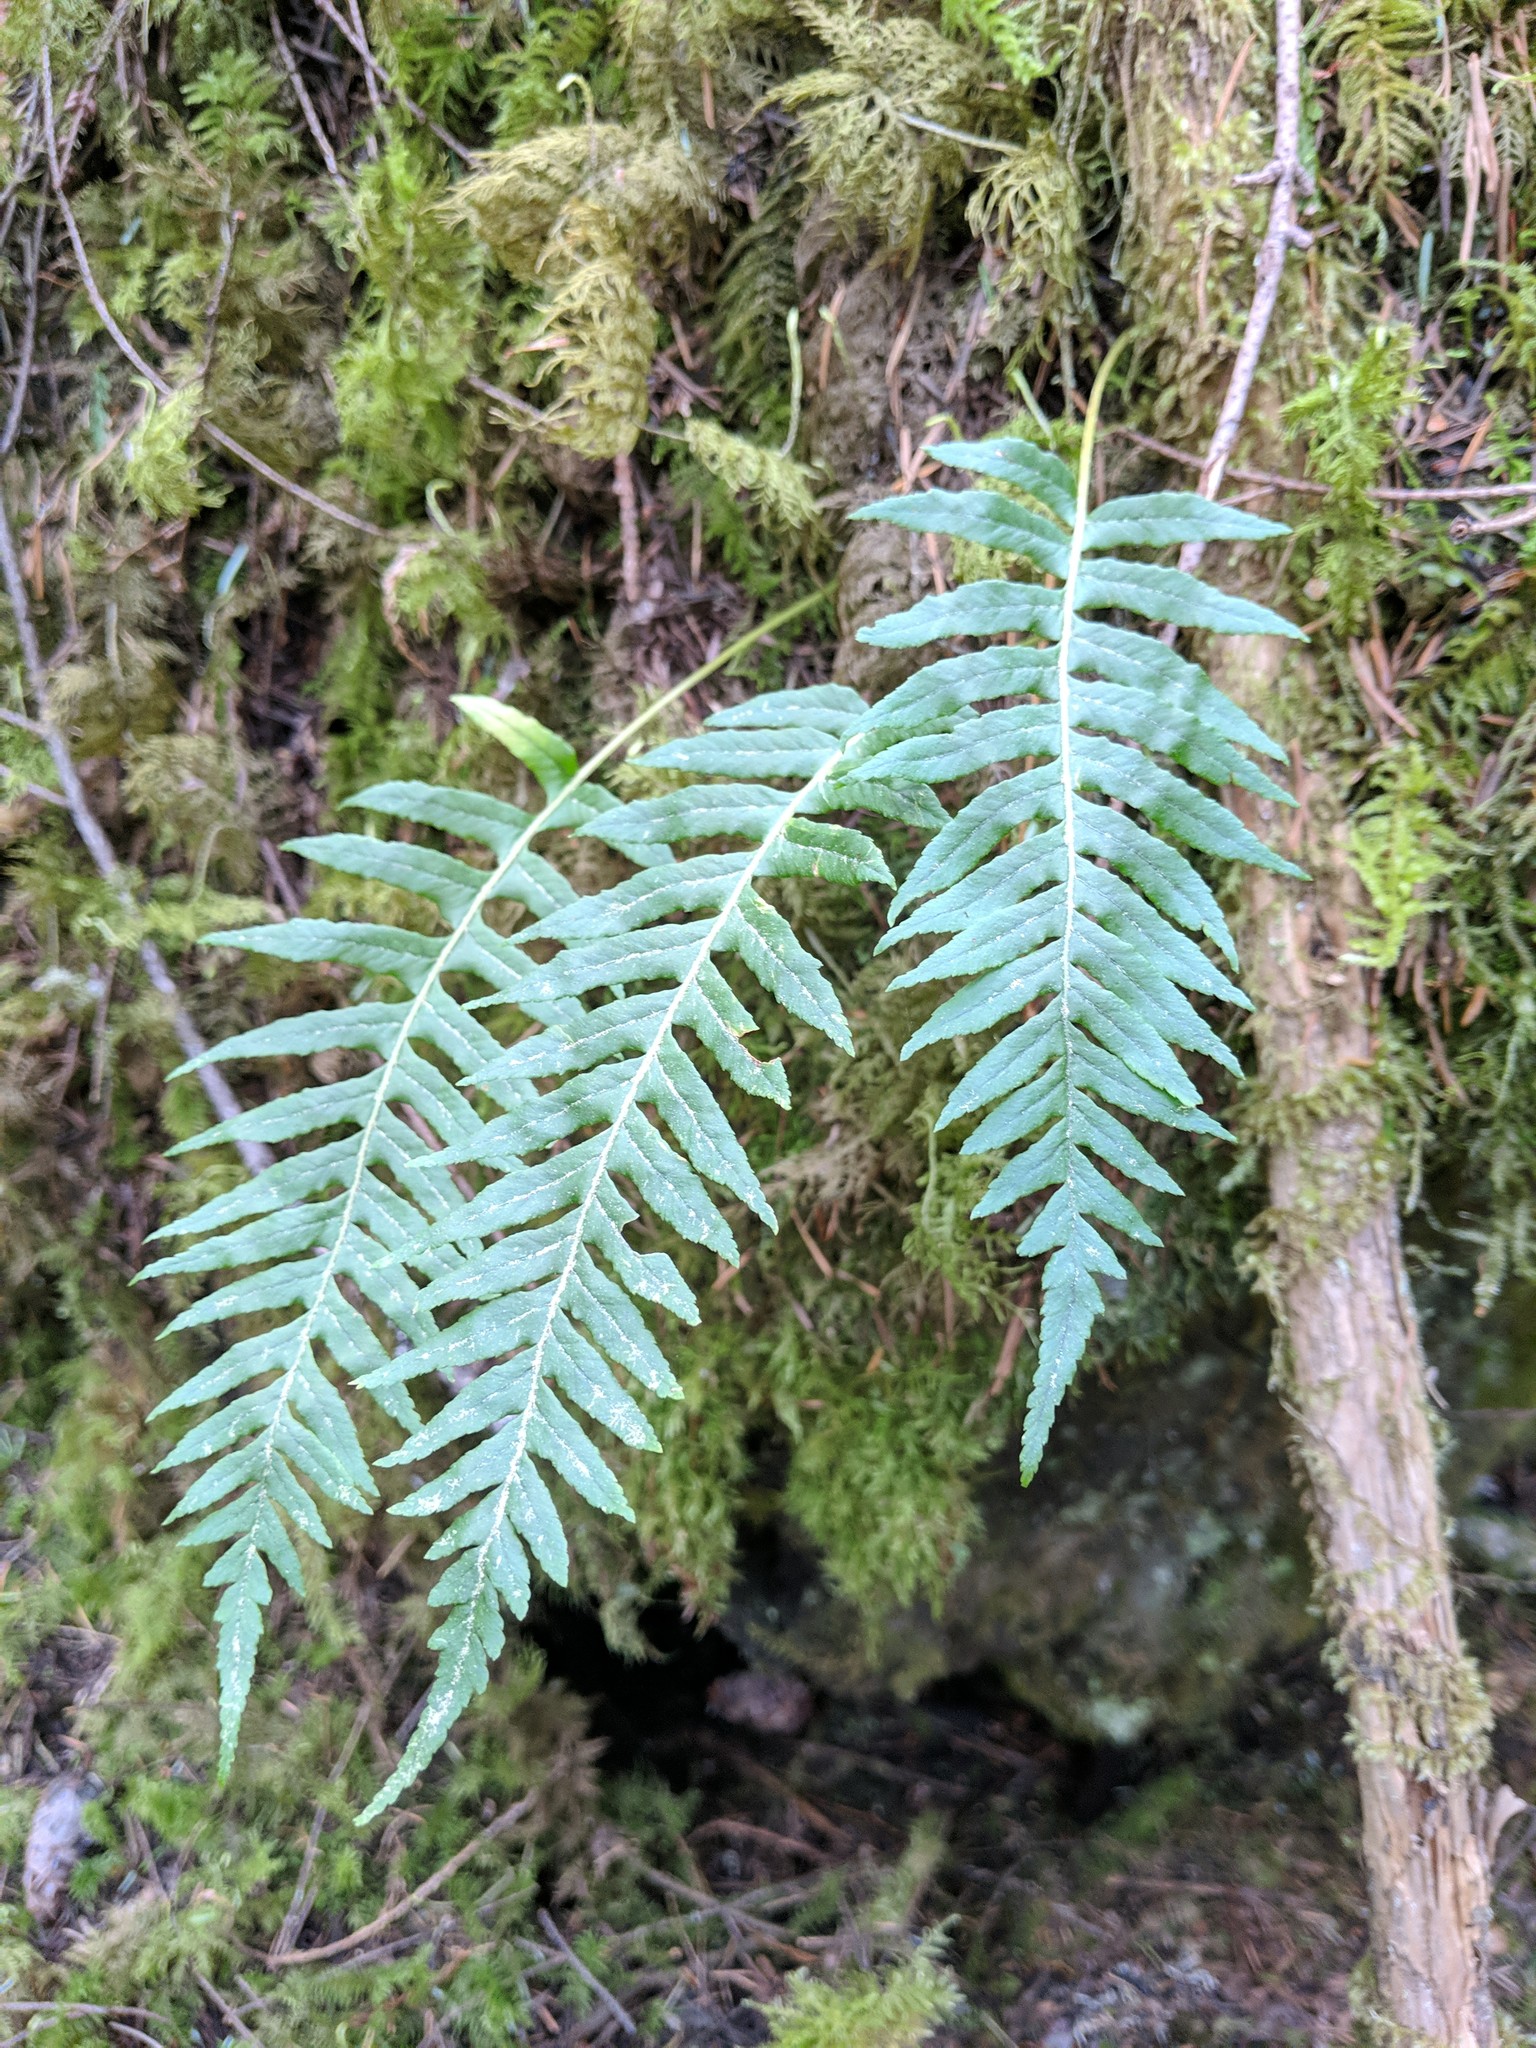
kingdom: Plantae
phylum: Tracheophyta
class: Polypodiopsida
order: Polypodiales
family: Polypodiaceae
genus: Polypodium
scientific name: Polypodium glycyrrhiza
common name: Licorice fern
